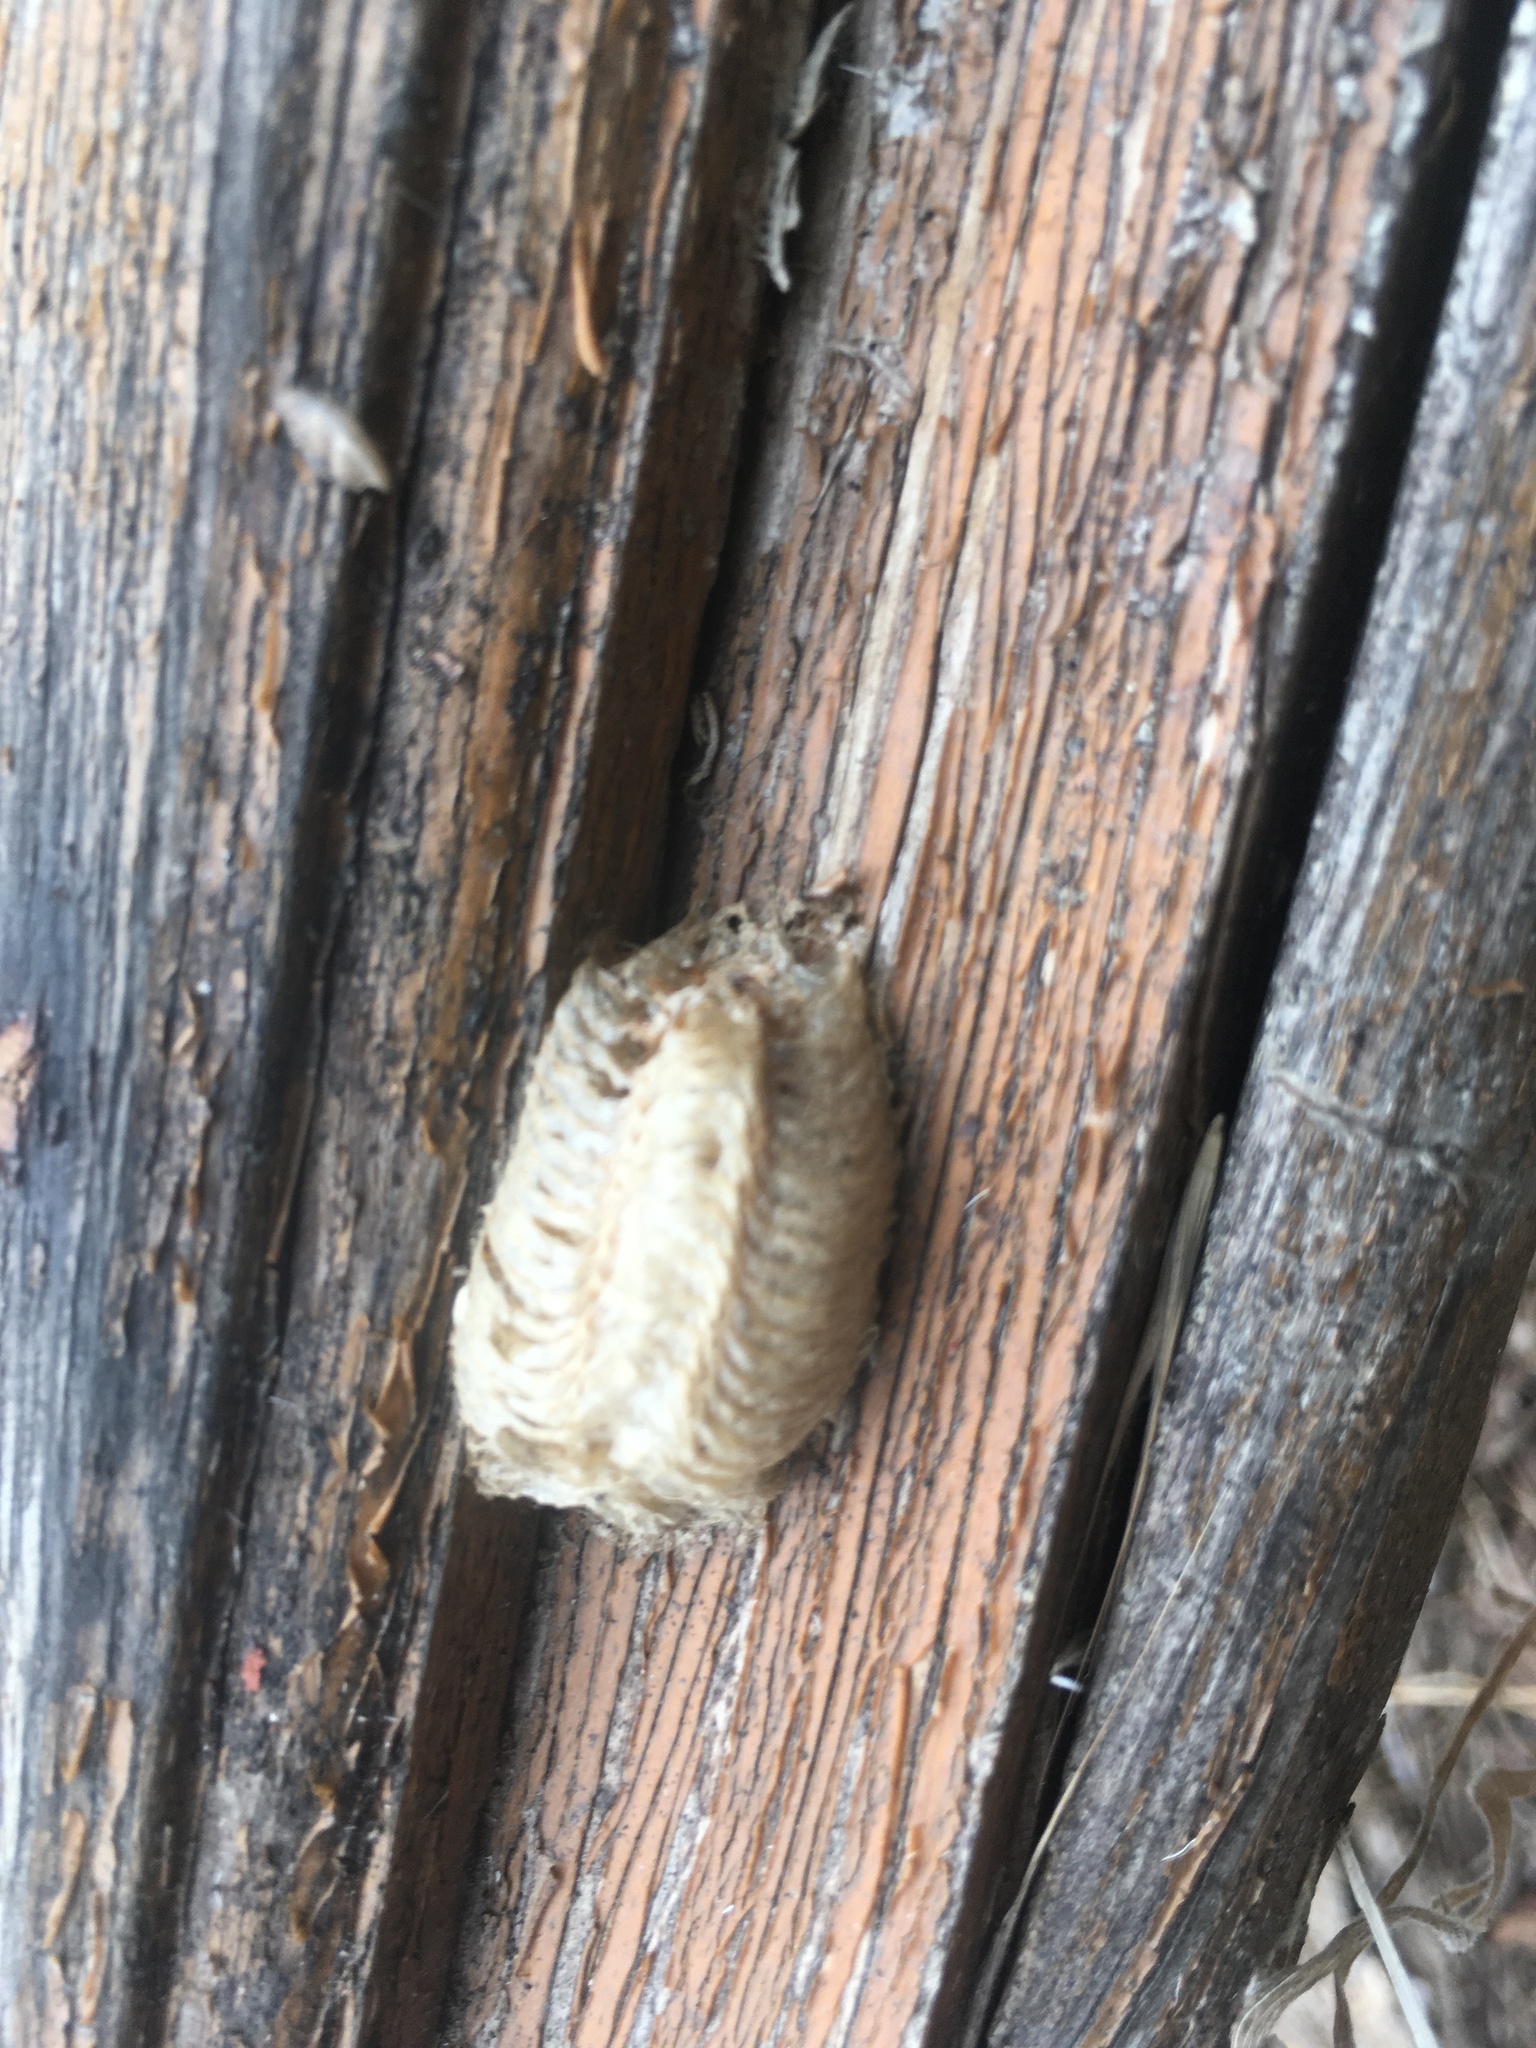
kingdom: Animalia
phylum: Arthropoda
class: Insecta
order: Mantodea
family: Mantidae
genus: Mantis
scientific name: Mantis religiosa
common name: Praying mantis
